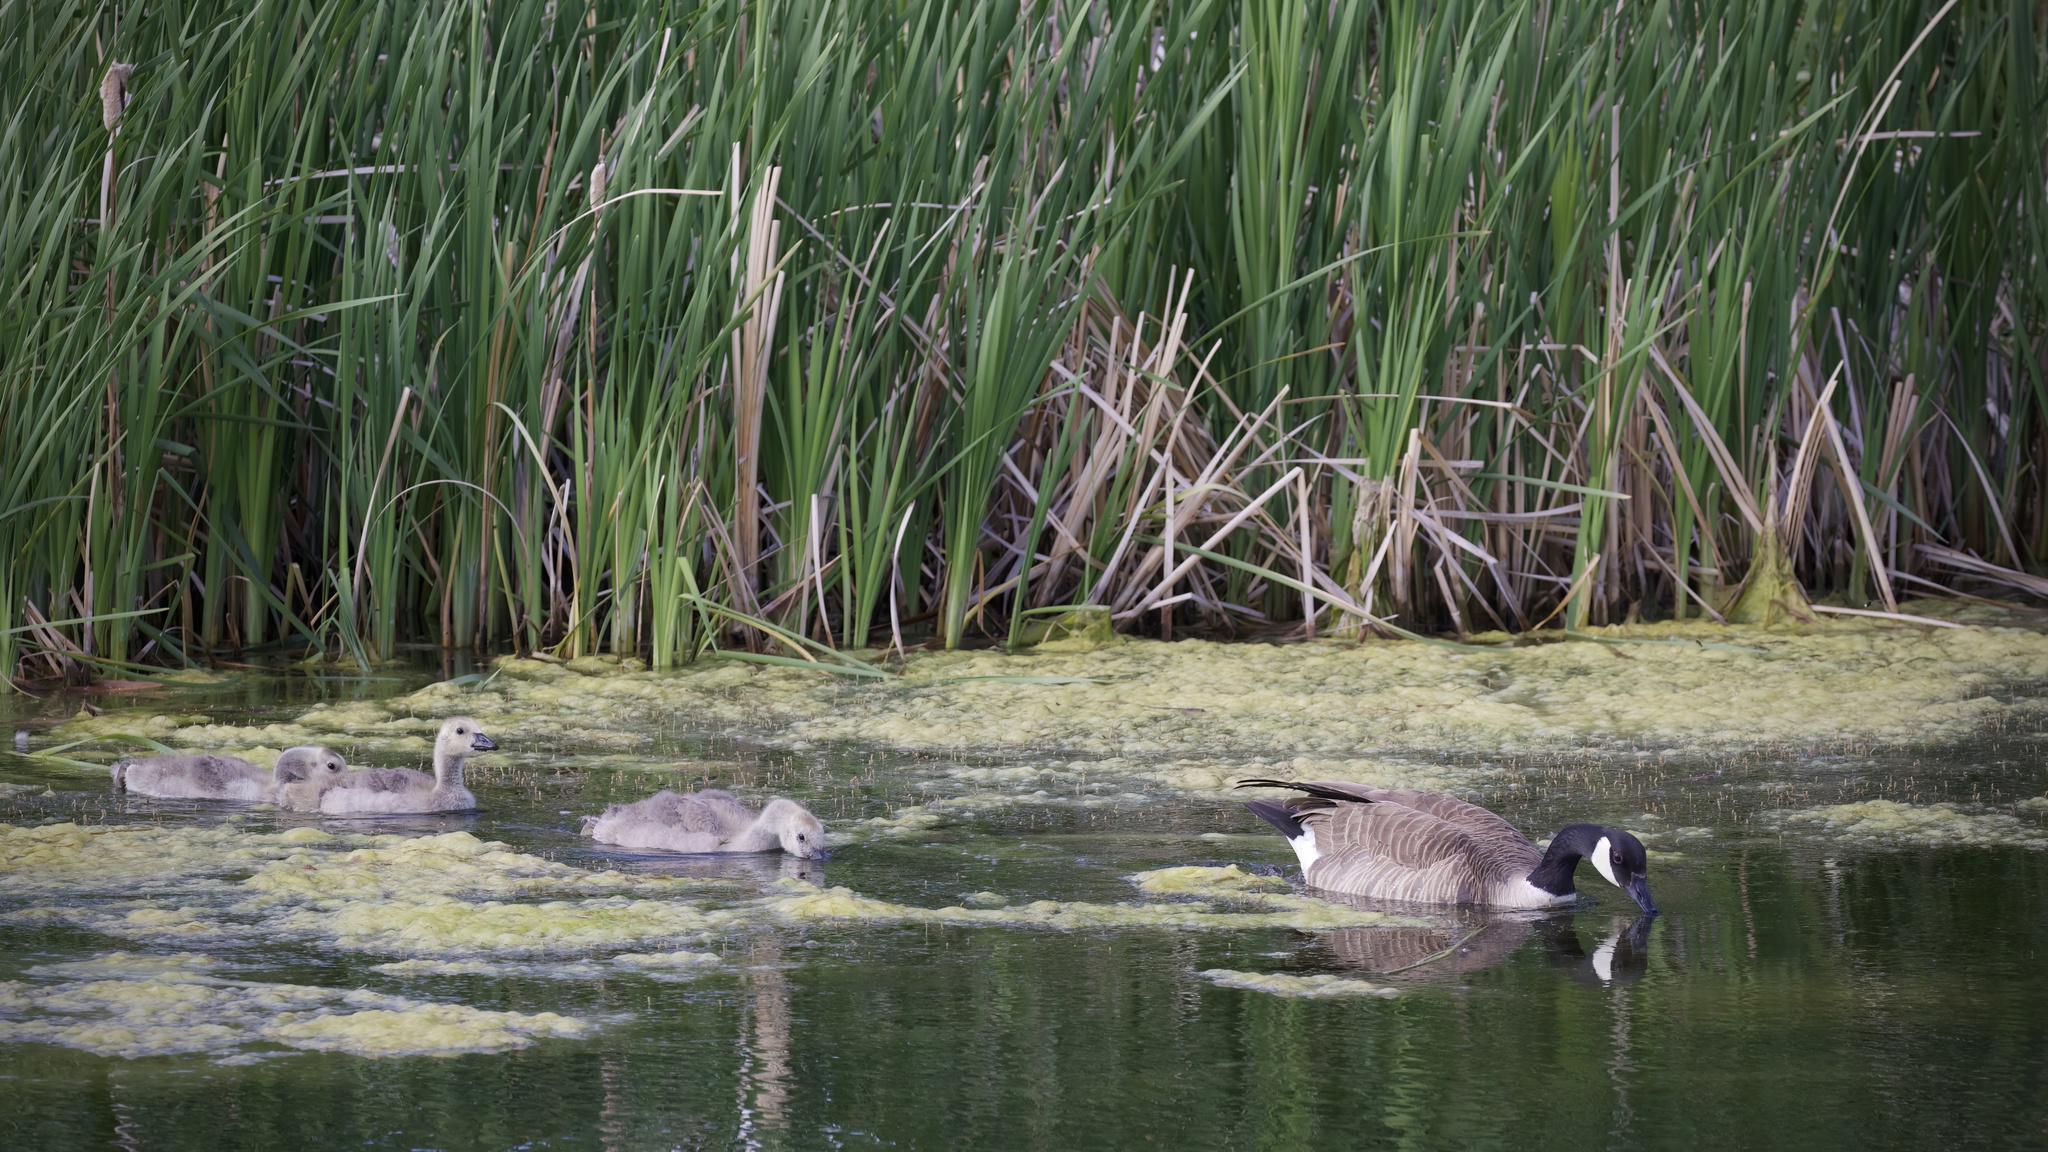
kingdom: Animalia
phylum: Chordata
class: Aves
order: Anseriformes
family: Anatidae
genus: Branta
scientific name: Branta canadensis
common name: Canada goose
